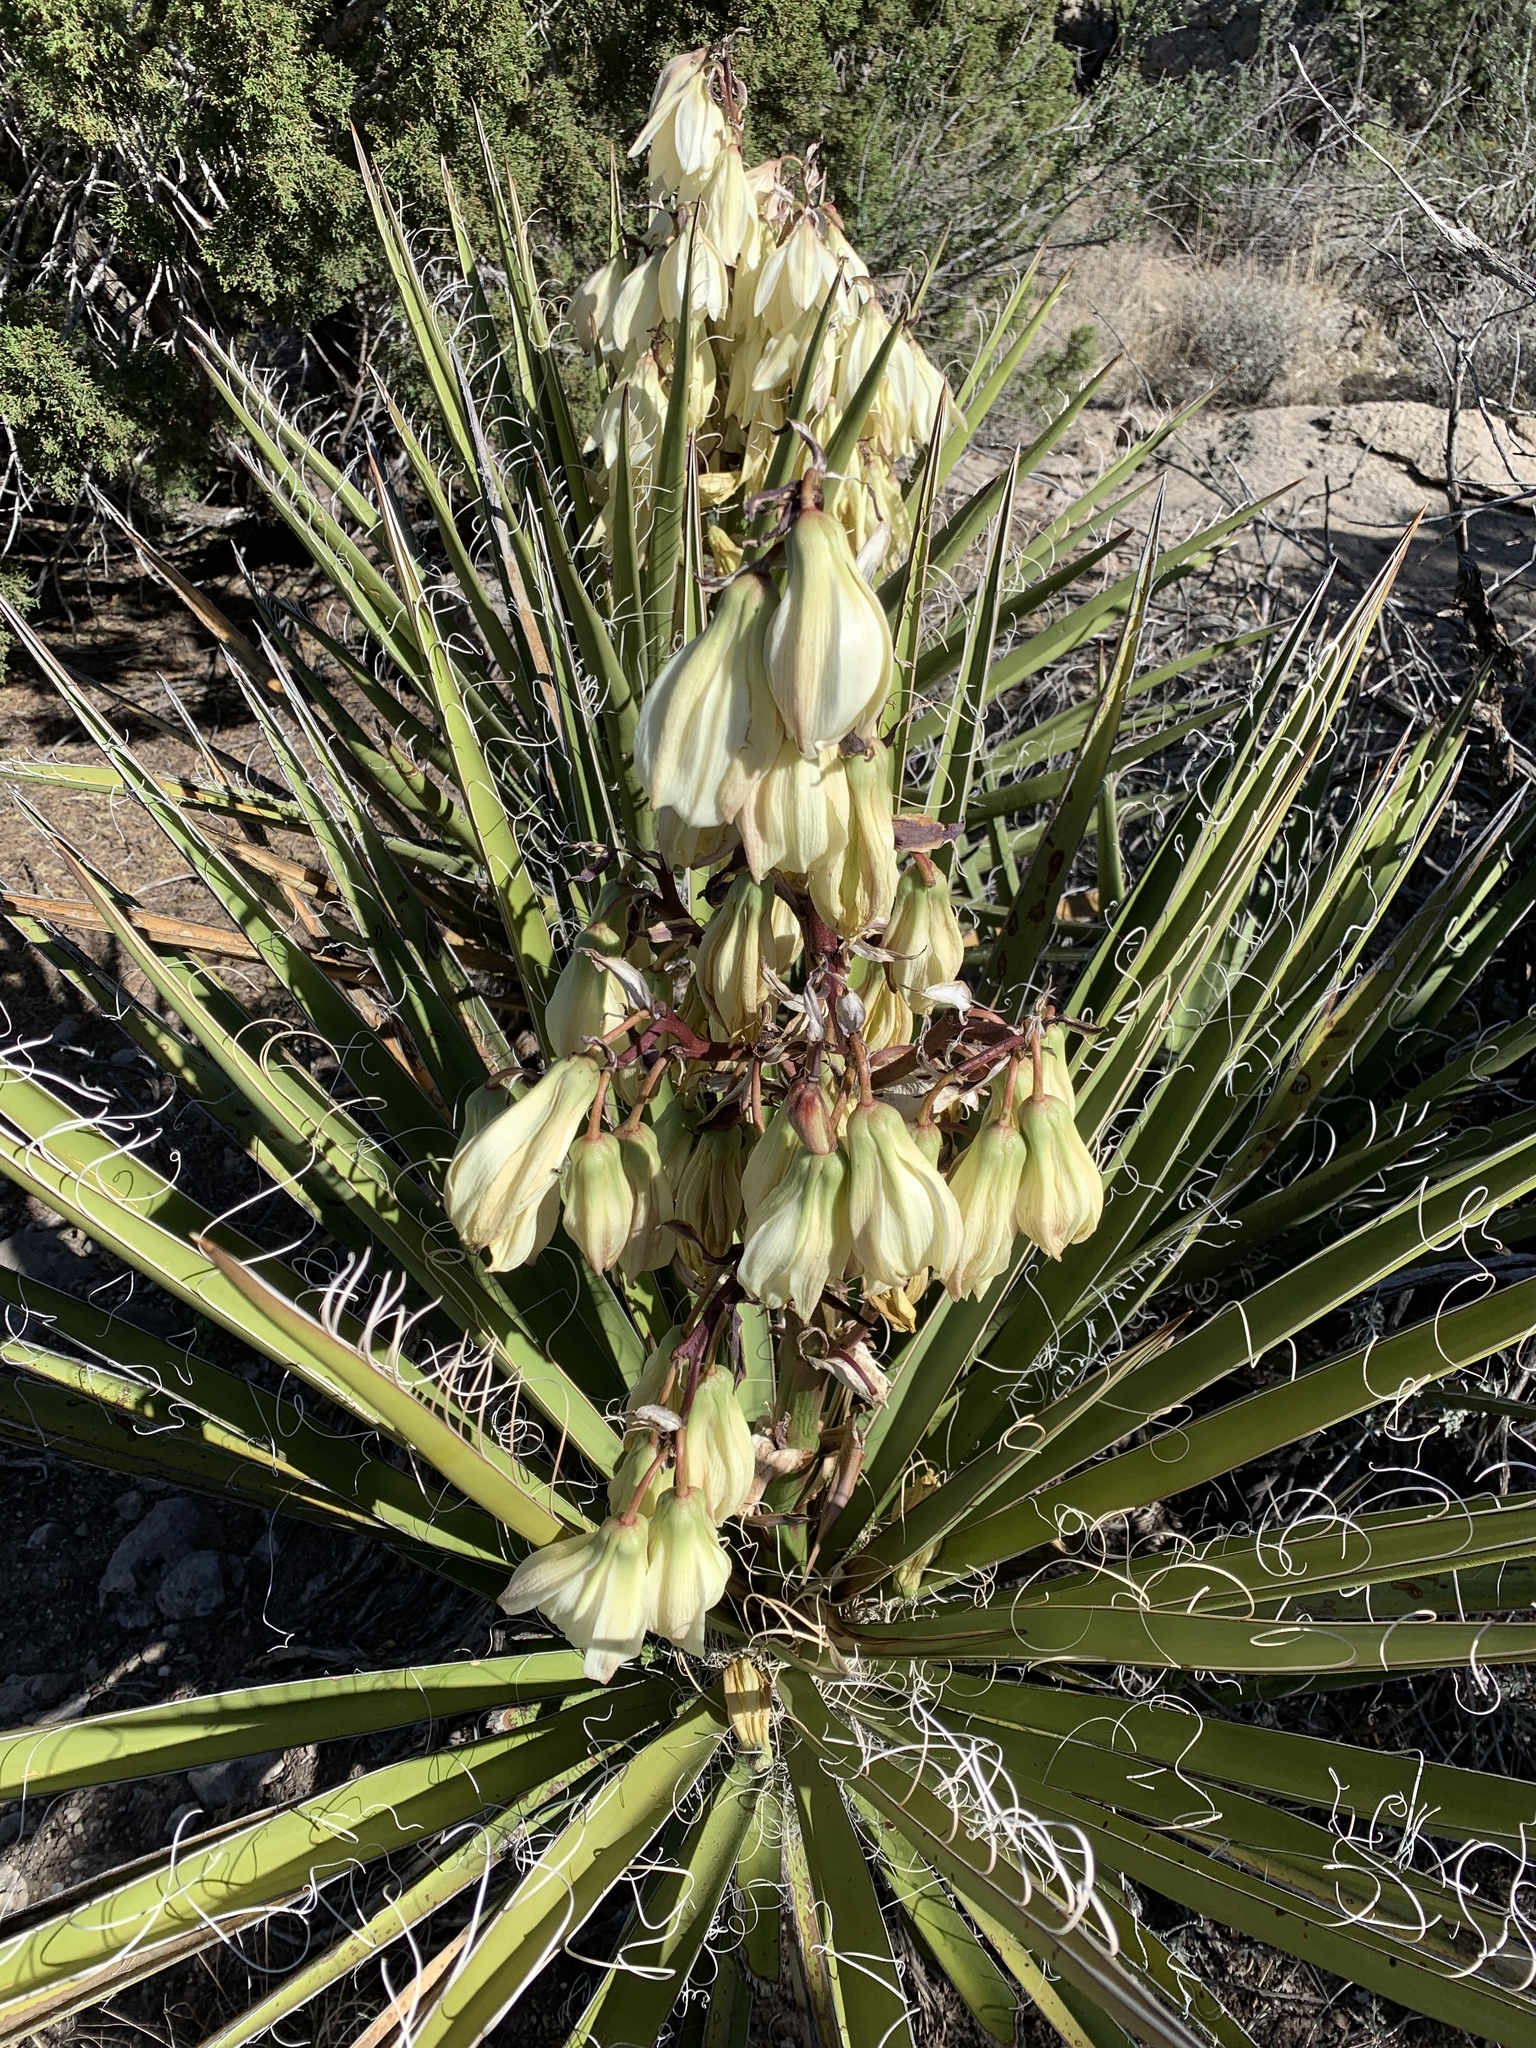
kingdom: Plantae
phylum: Tracheophyta
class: Liliopsida
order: Asparagales
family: Asparagaceae
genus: Yucca
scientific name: Yucca baccata
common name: Banana yucca
